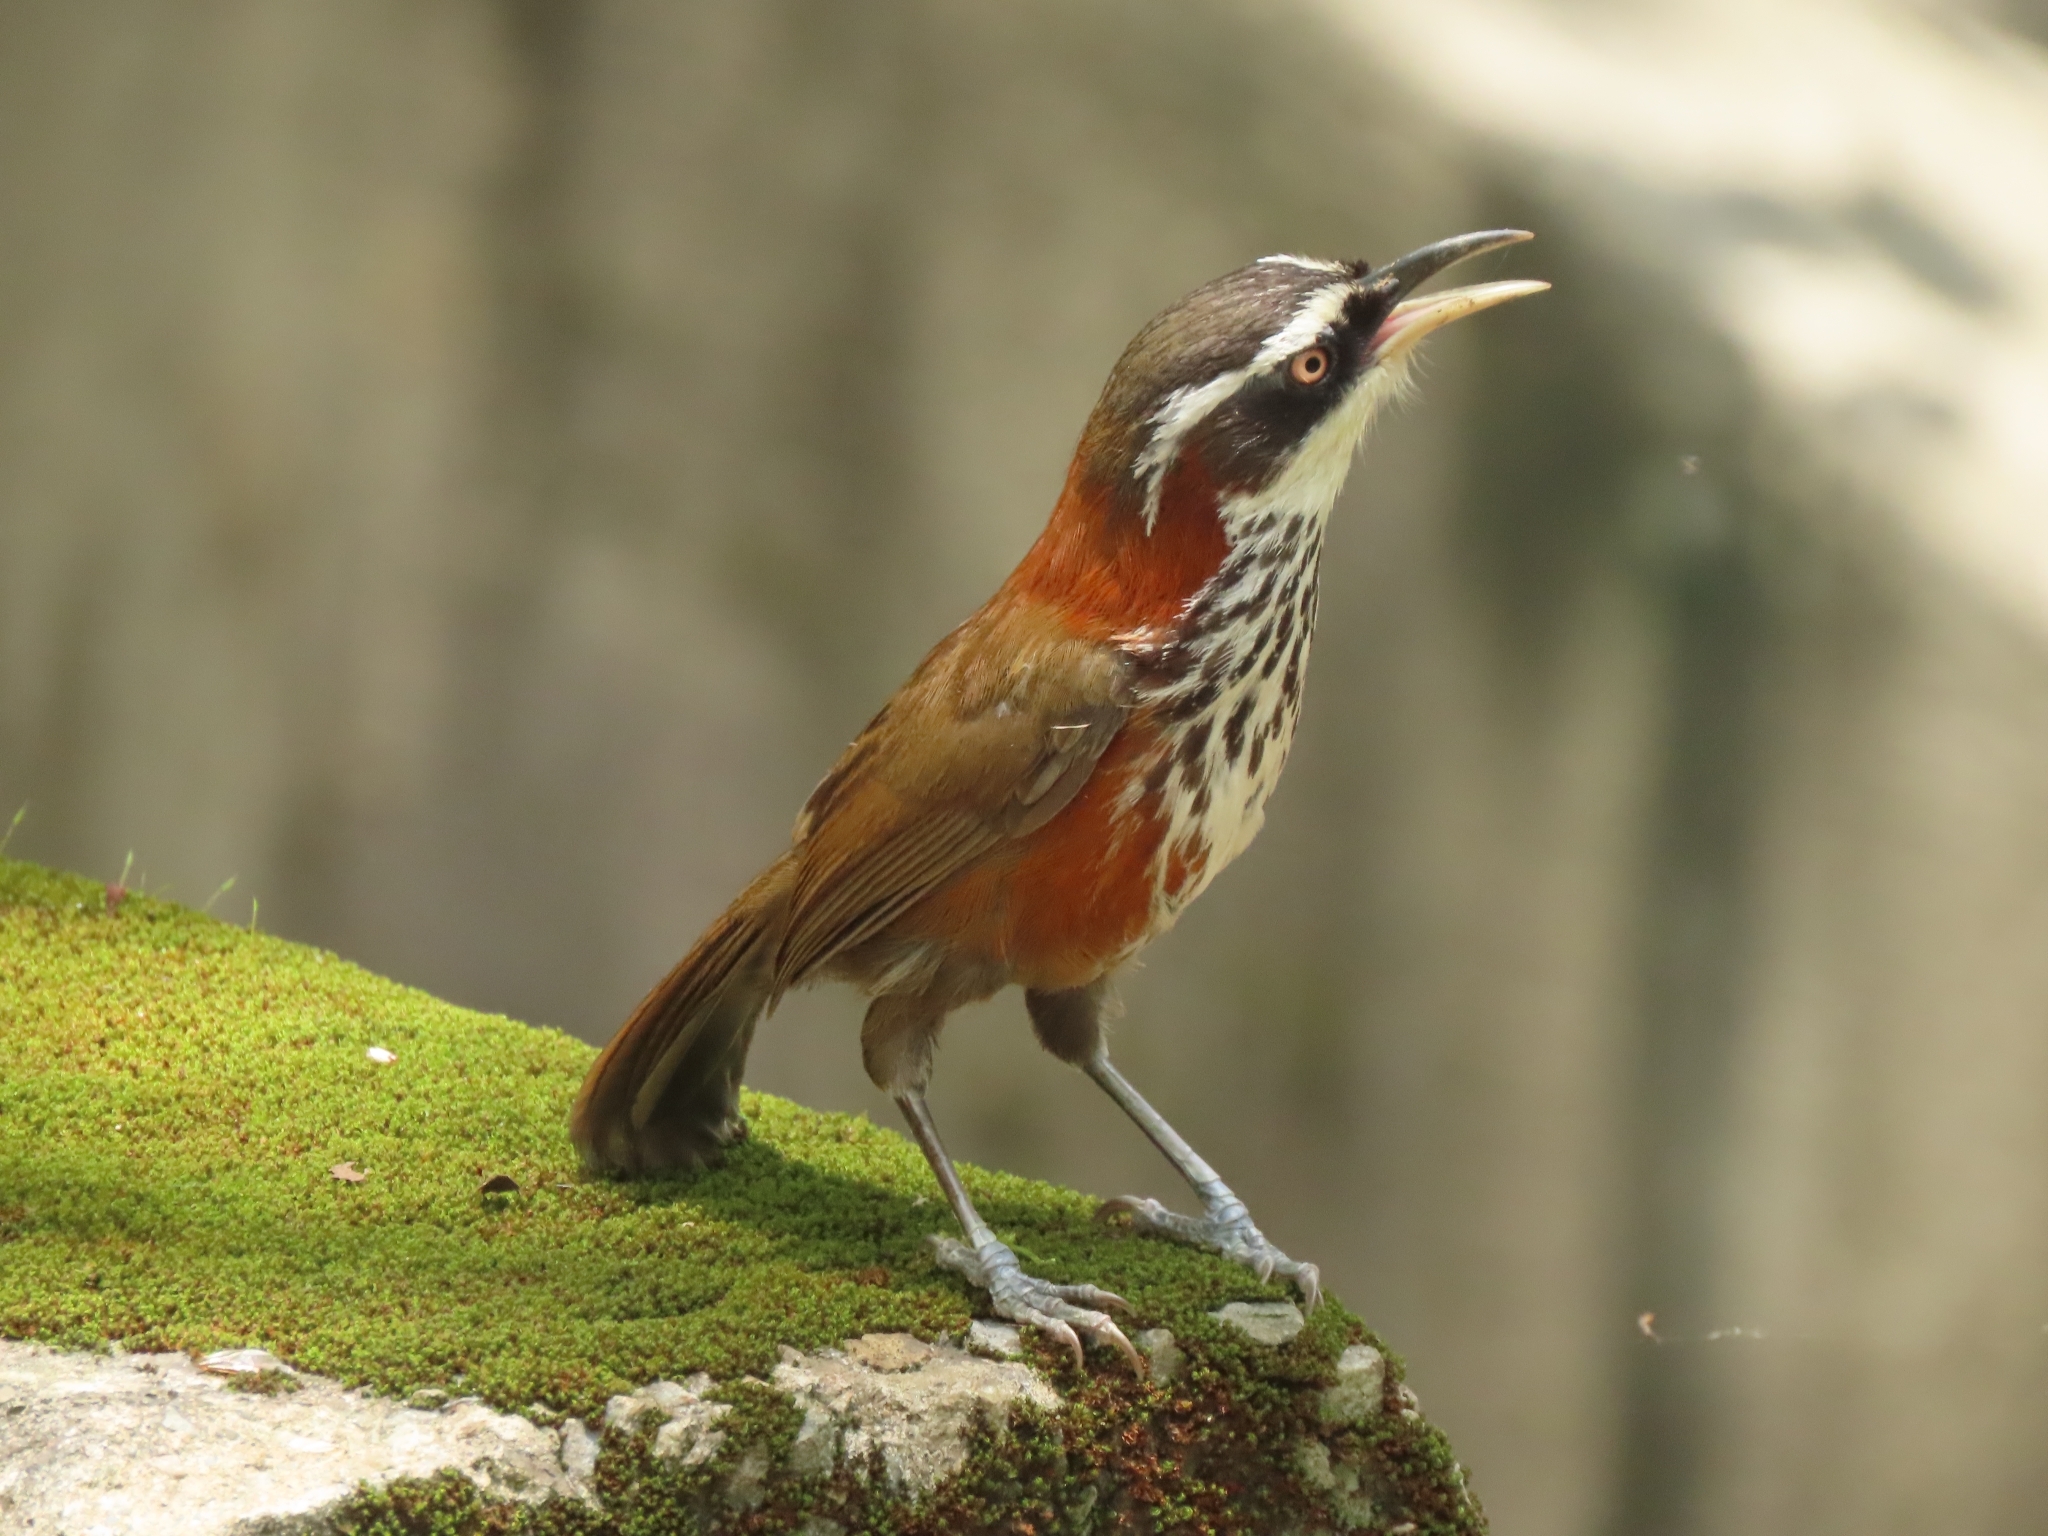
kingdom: Animalia
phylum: Chordata
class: Aves
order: Passeriformes
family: Timaliidae
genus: Pomatorhinus
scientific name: Pomatorhinus musicus
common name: Taiwan scimitar-babbler
